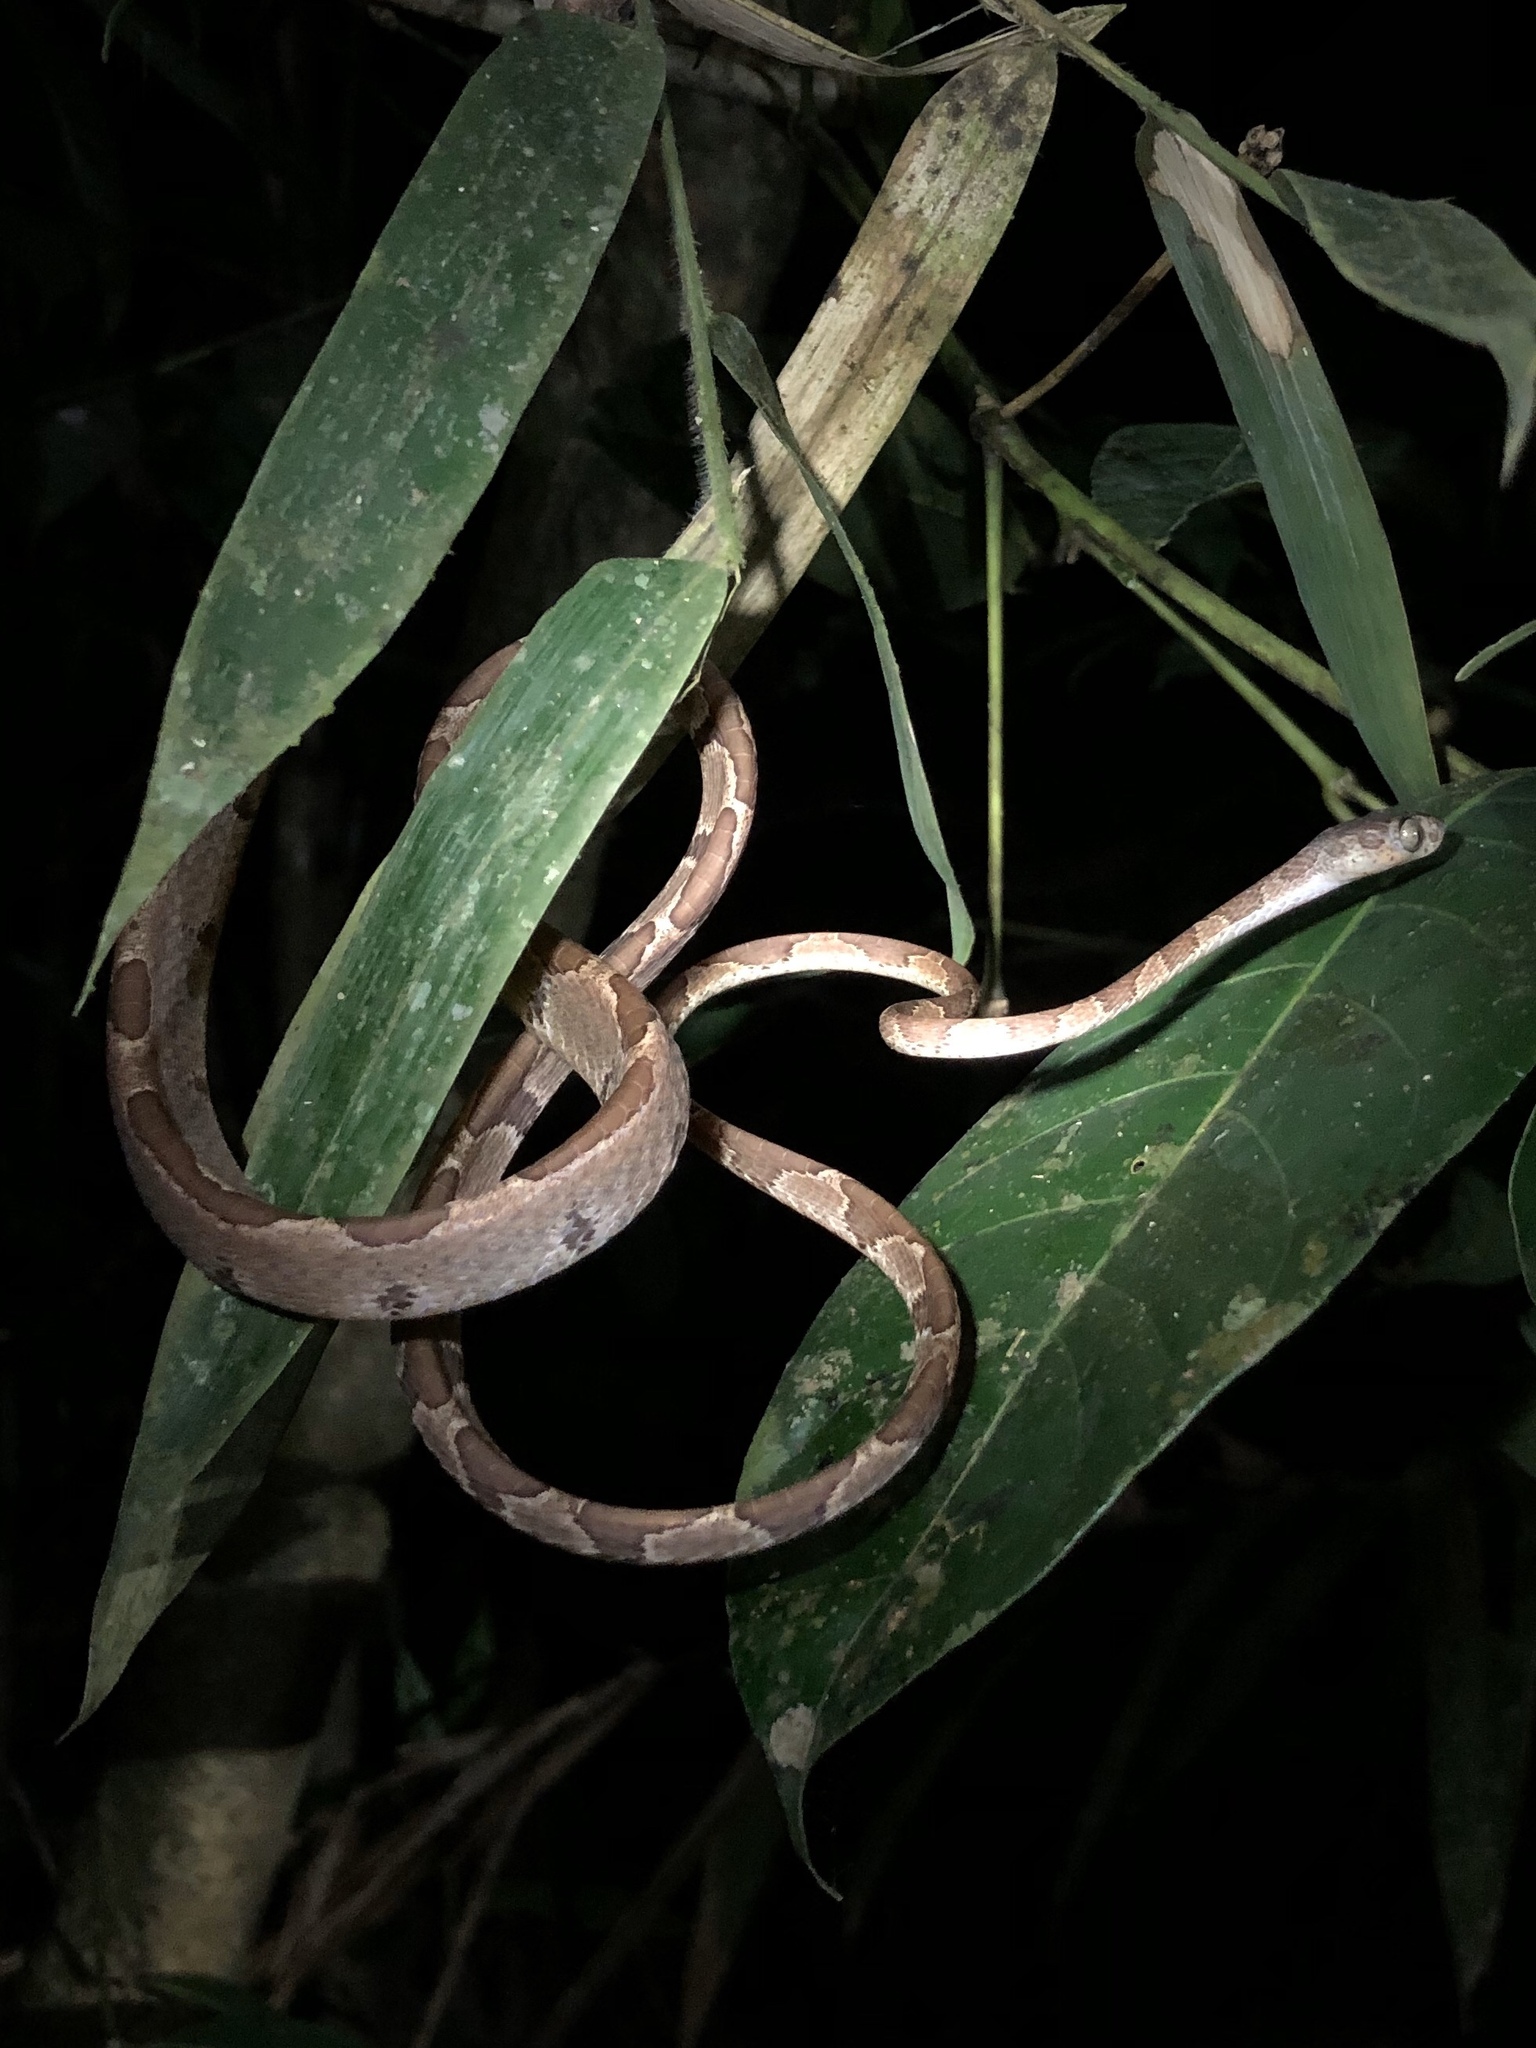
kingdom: Animalia
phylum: Chordata
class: Squamata
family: Colubridae
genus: Imantodes
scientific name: Imantodes cenchoa
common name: Blunthead tree snake
